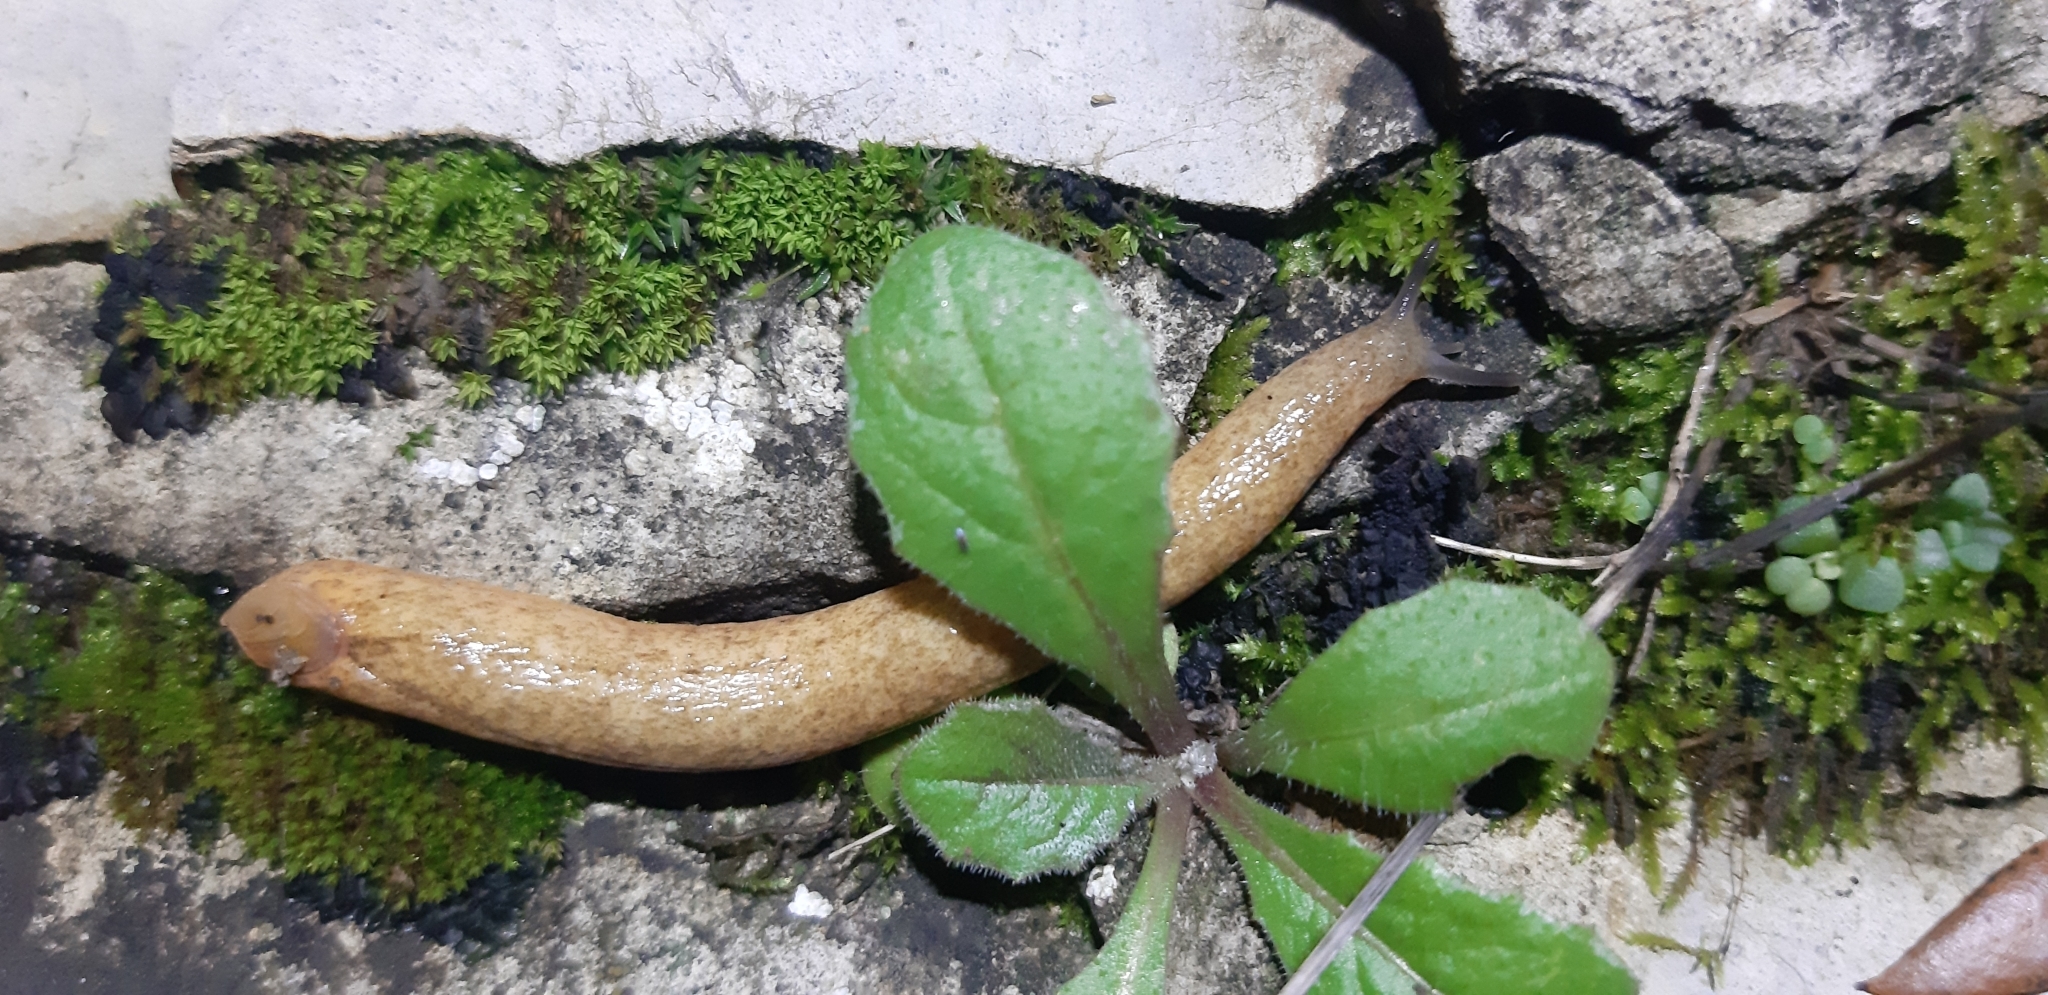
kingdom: Animalia
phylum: Mollusca
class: Gastropoda
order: Stylommatophora
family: Testacellidae
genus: Testacella
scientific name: Testacella scutulum
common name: Sowerby's shield shelled slug
